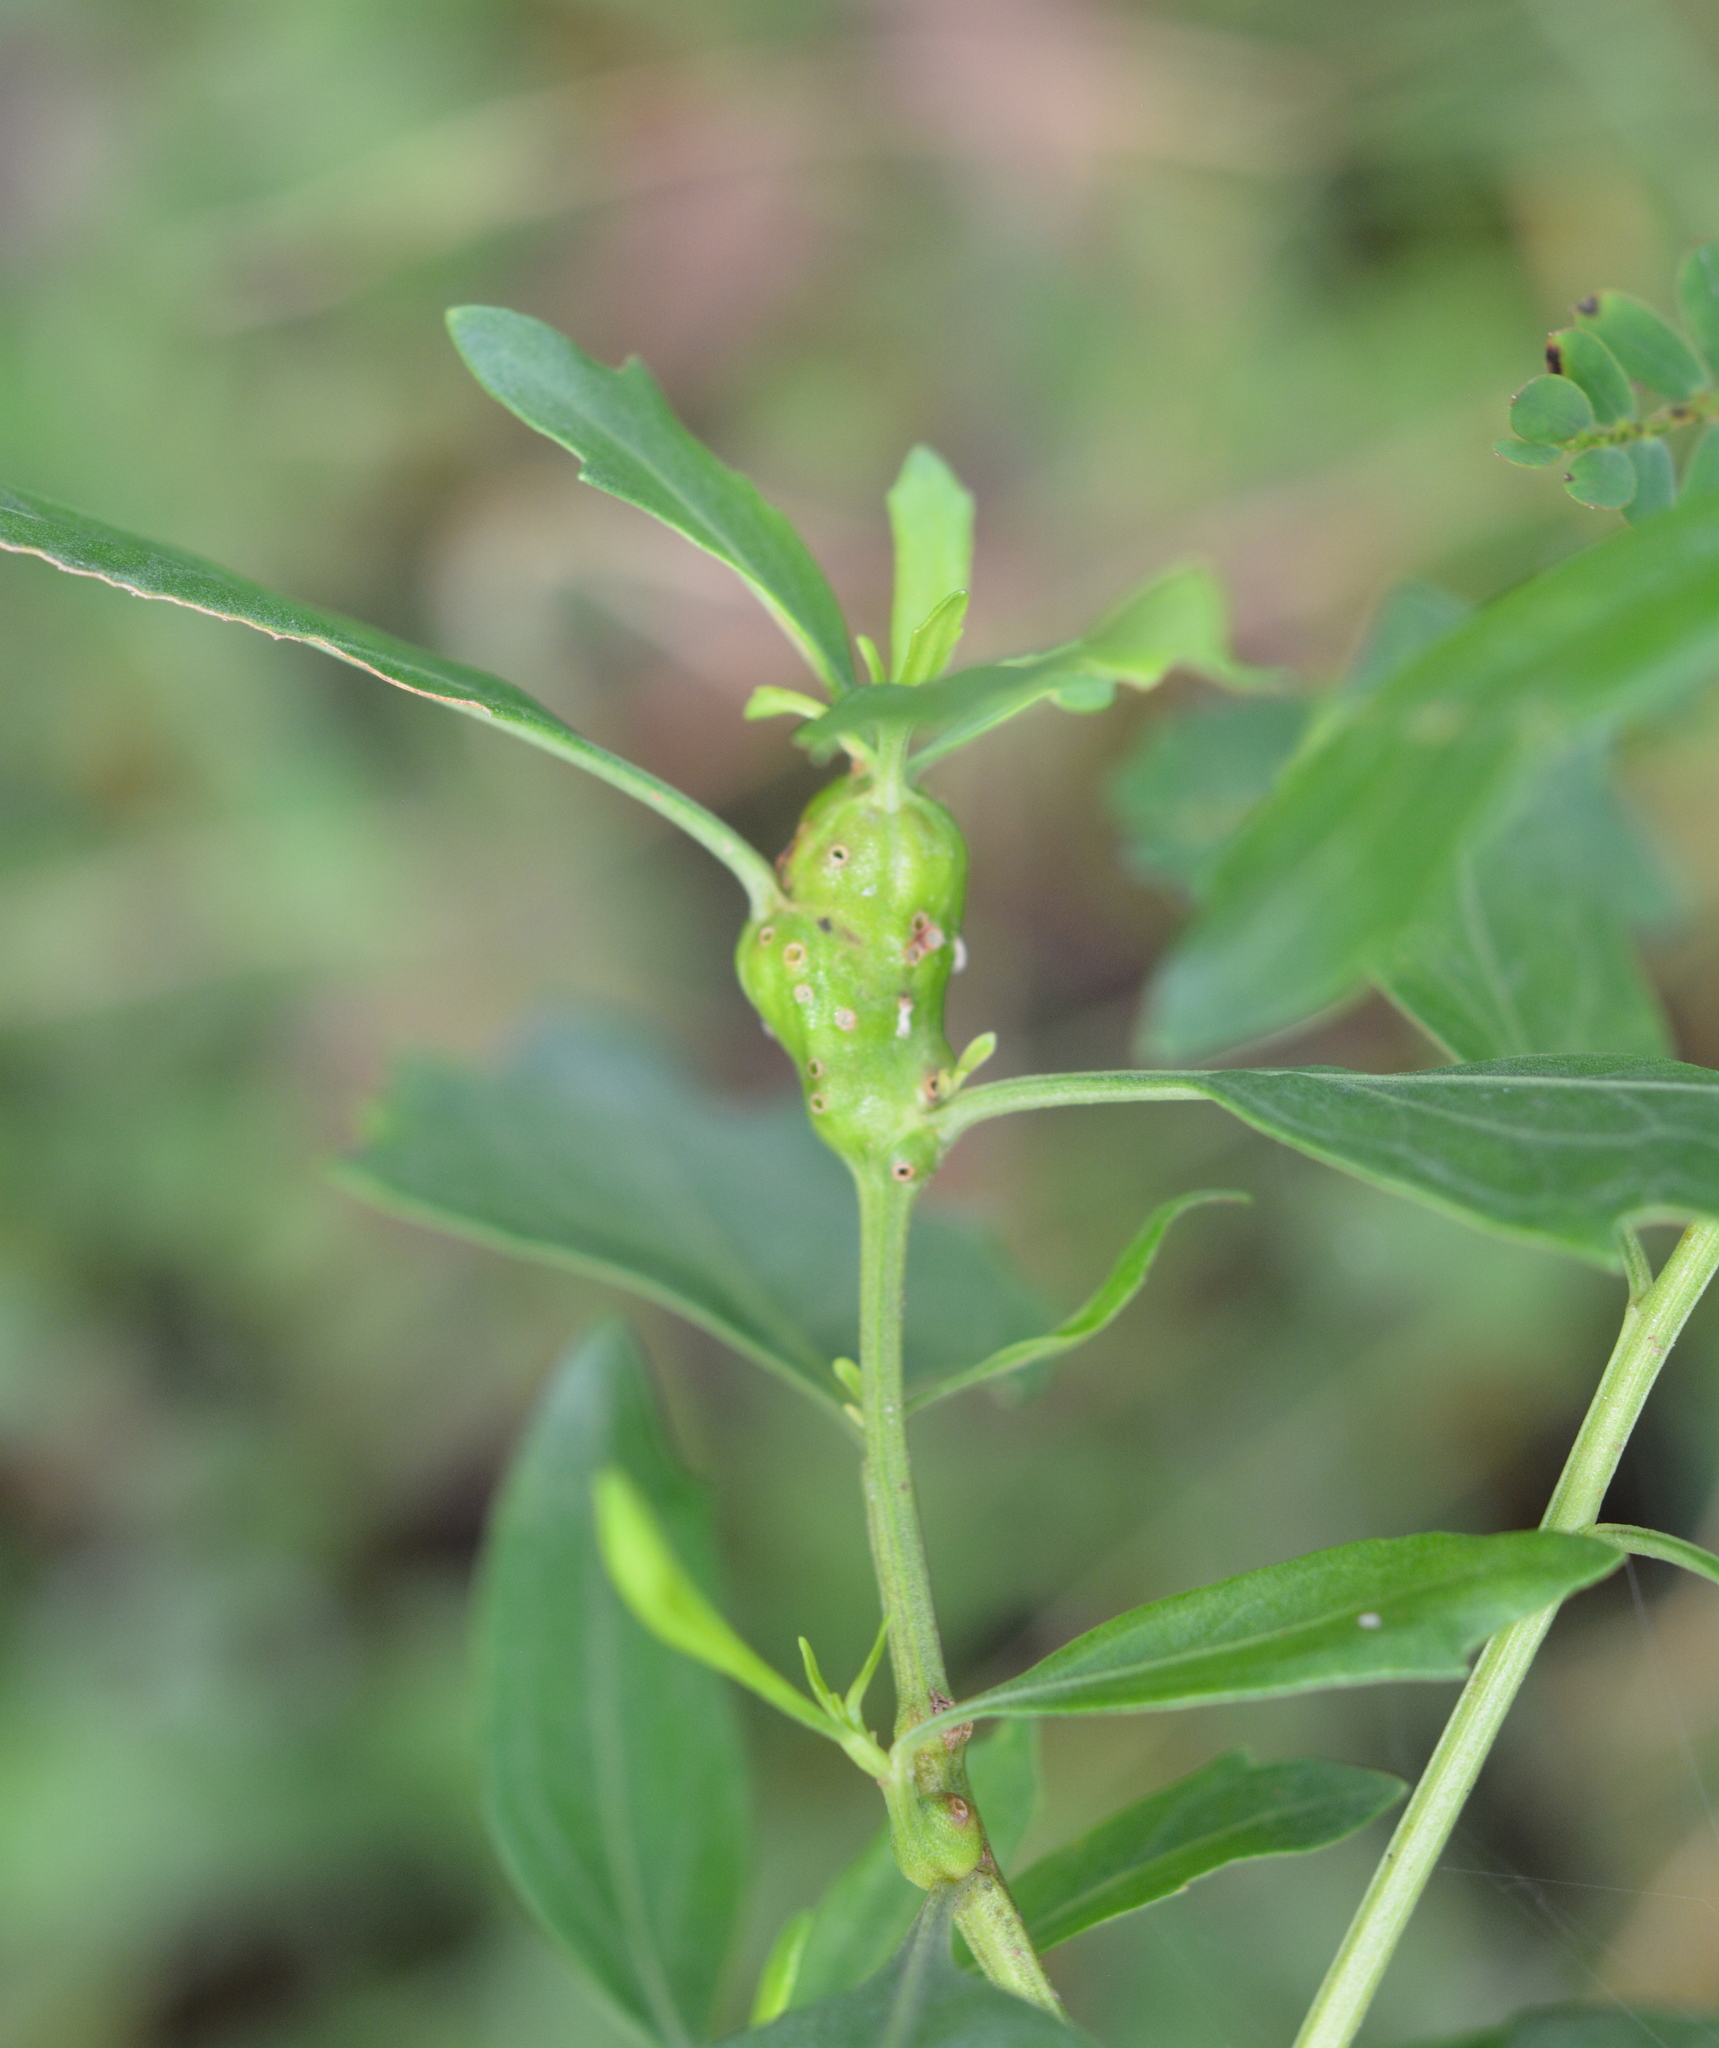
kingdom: Animalia
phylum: Arthropoda
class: Insecta
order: Diptera
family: Cecidomyiidae
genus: Neolasioptera
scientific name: Neolasioptera lathami
